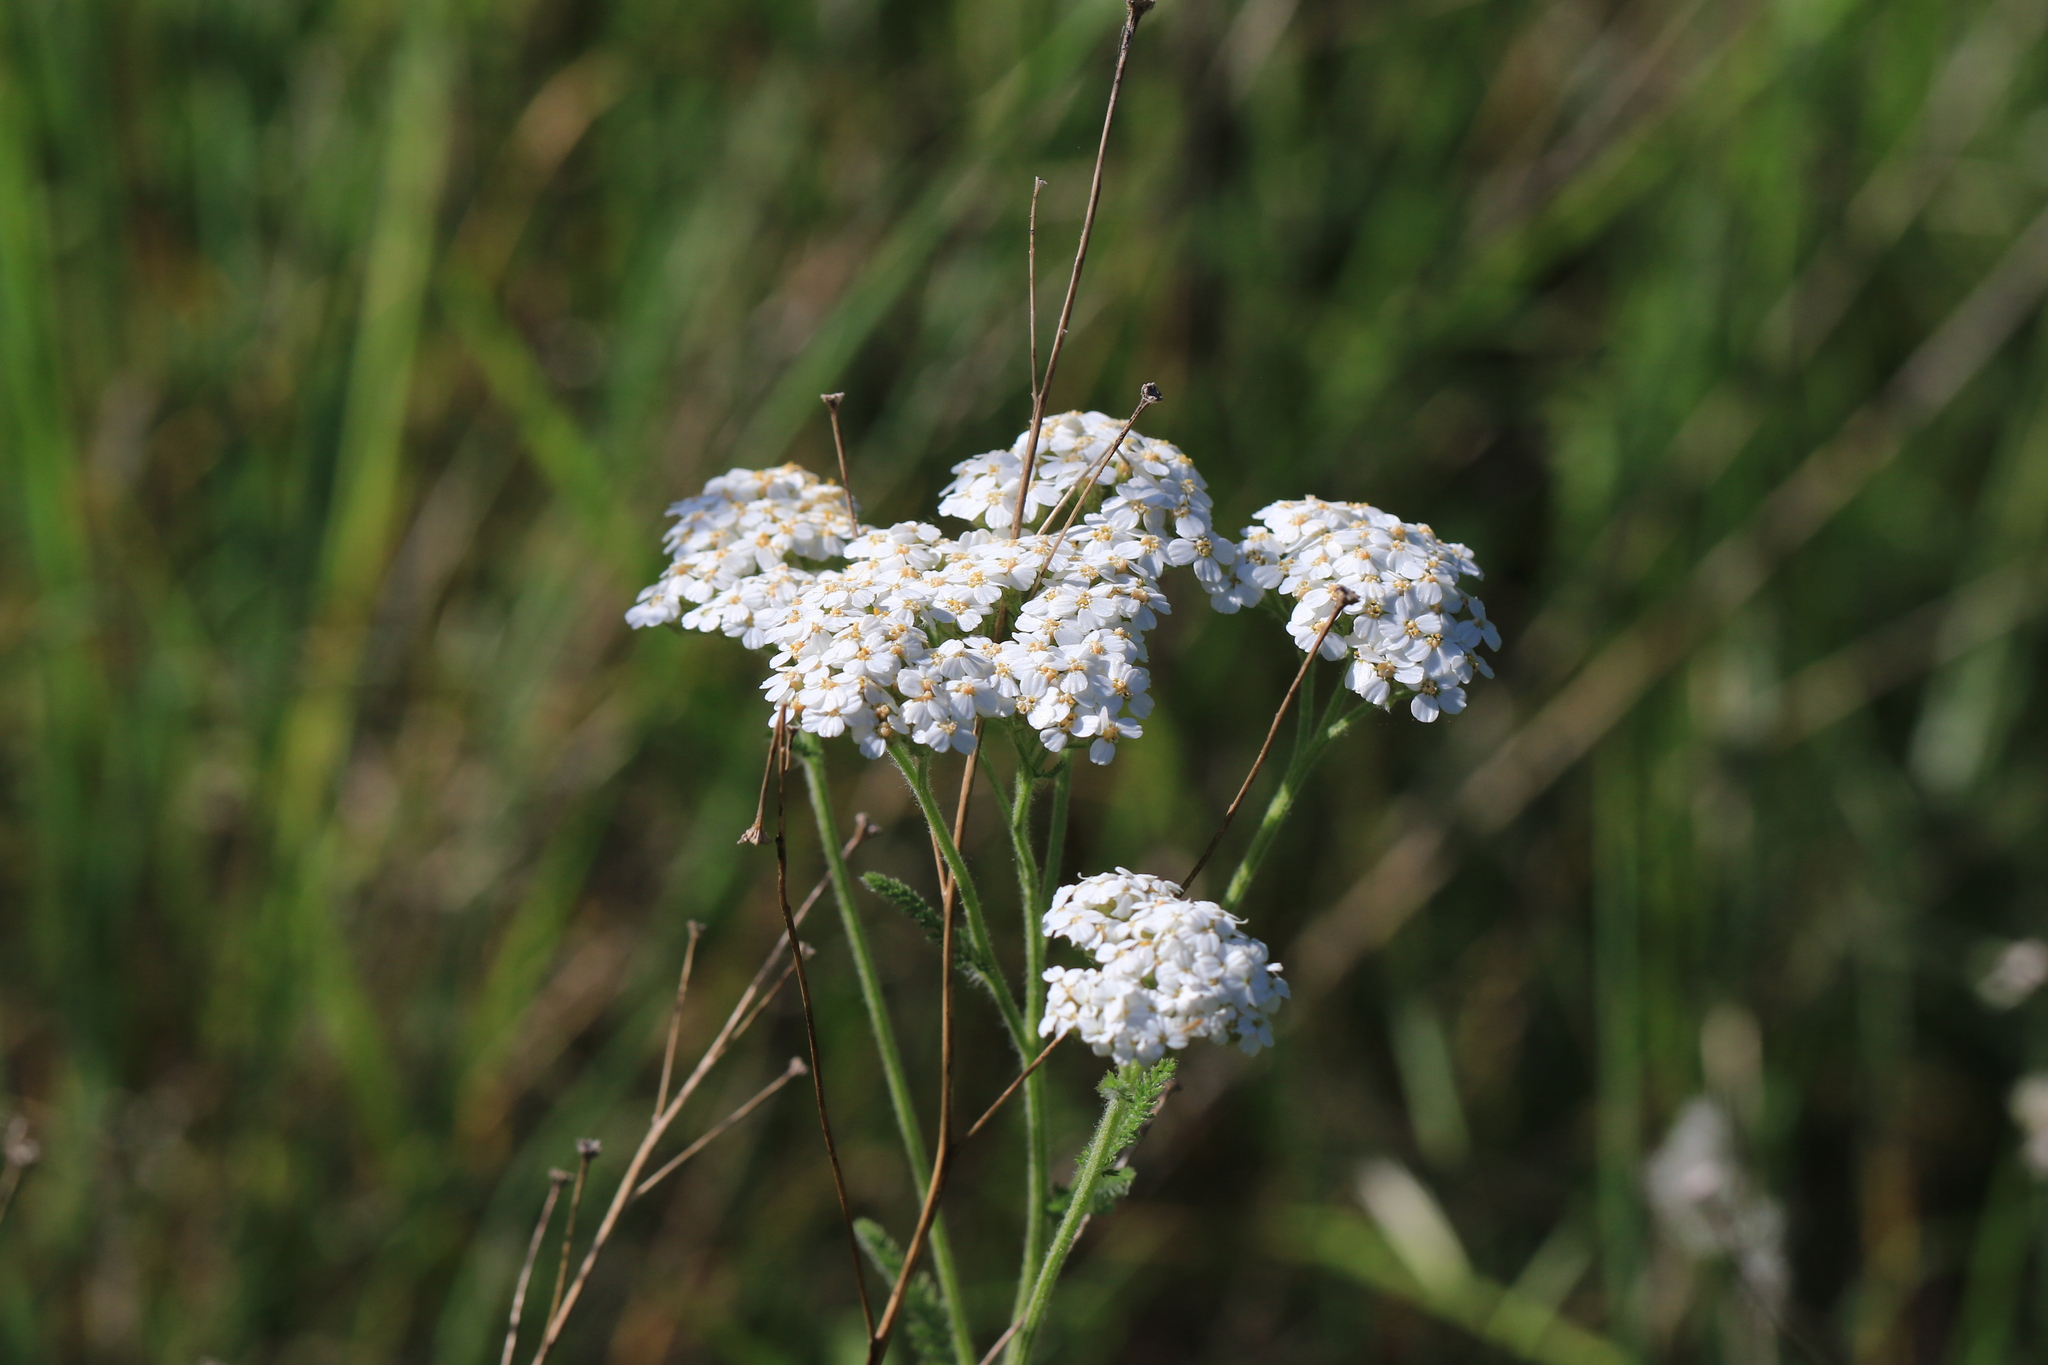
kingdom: Plantae
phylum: Tracheophyta
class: Magnoliopsida
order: Asterales
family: Asteraceae
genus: Achillea
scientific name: Achillea millefolium
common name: Yarrow
